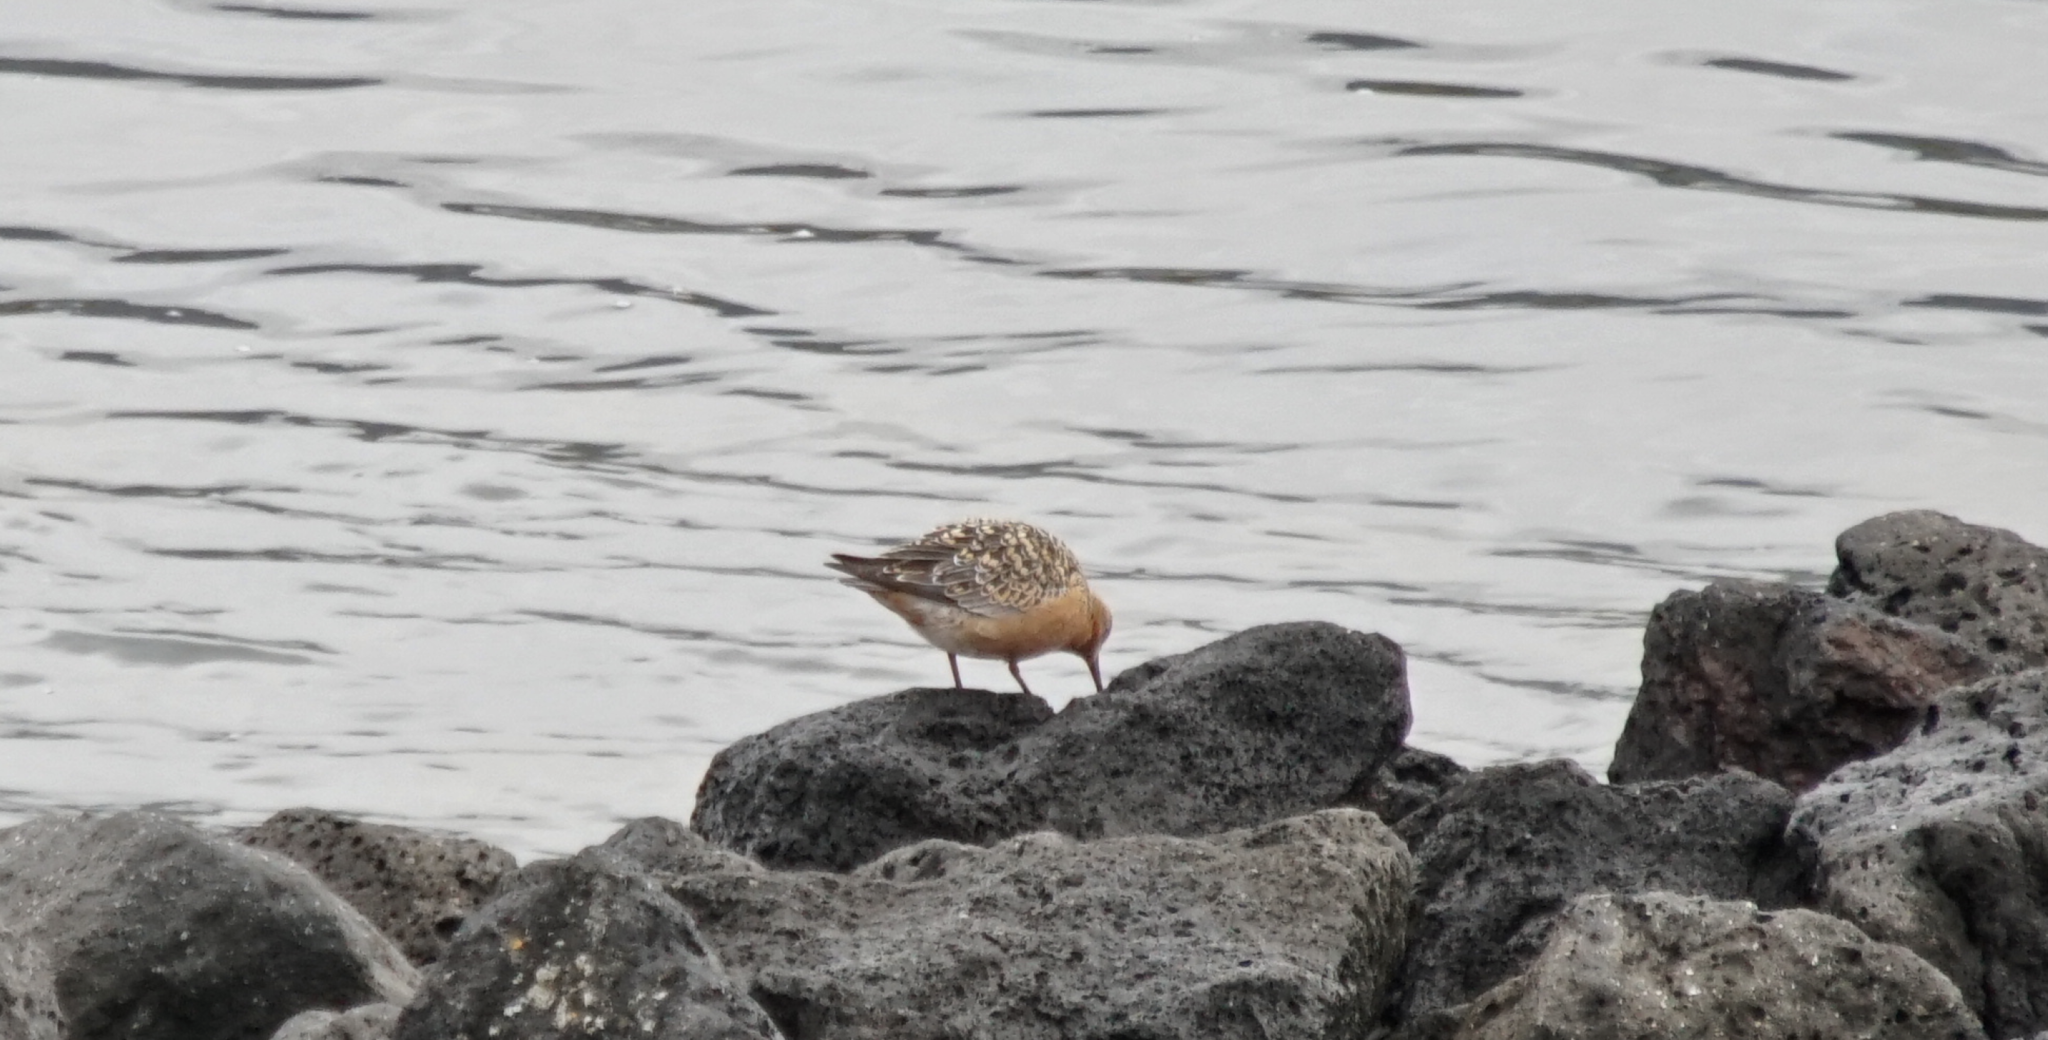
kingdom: Animalia
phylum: Chordata
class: Aves
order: Charadriiformes
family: Scolopacidae
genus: Calidris
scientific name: Calidris canutus
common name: Red knot
